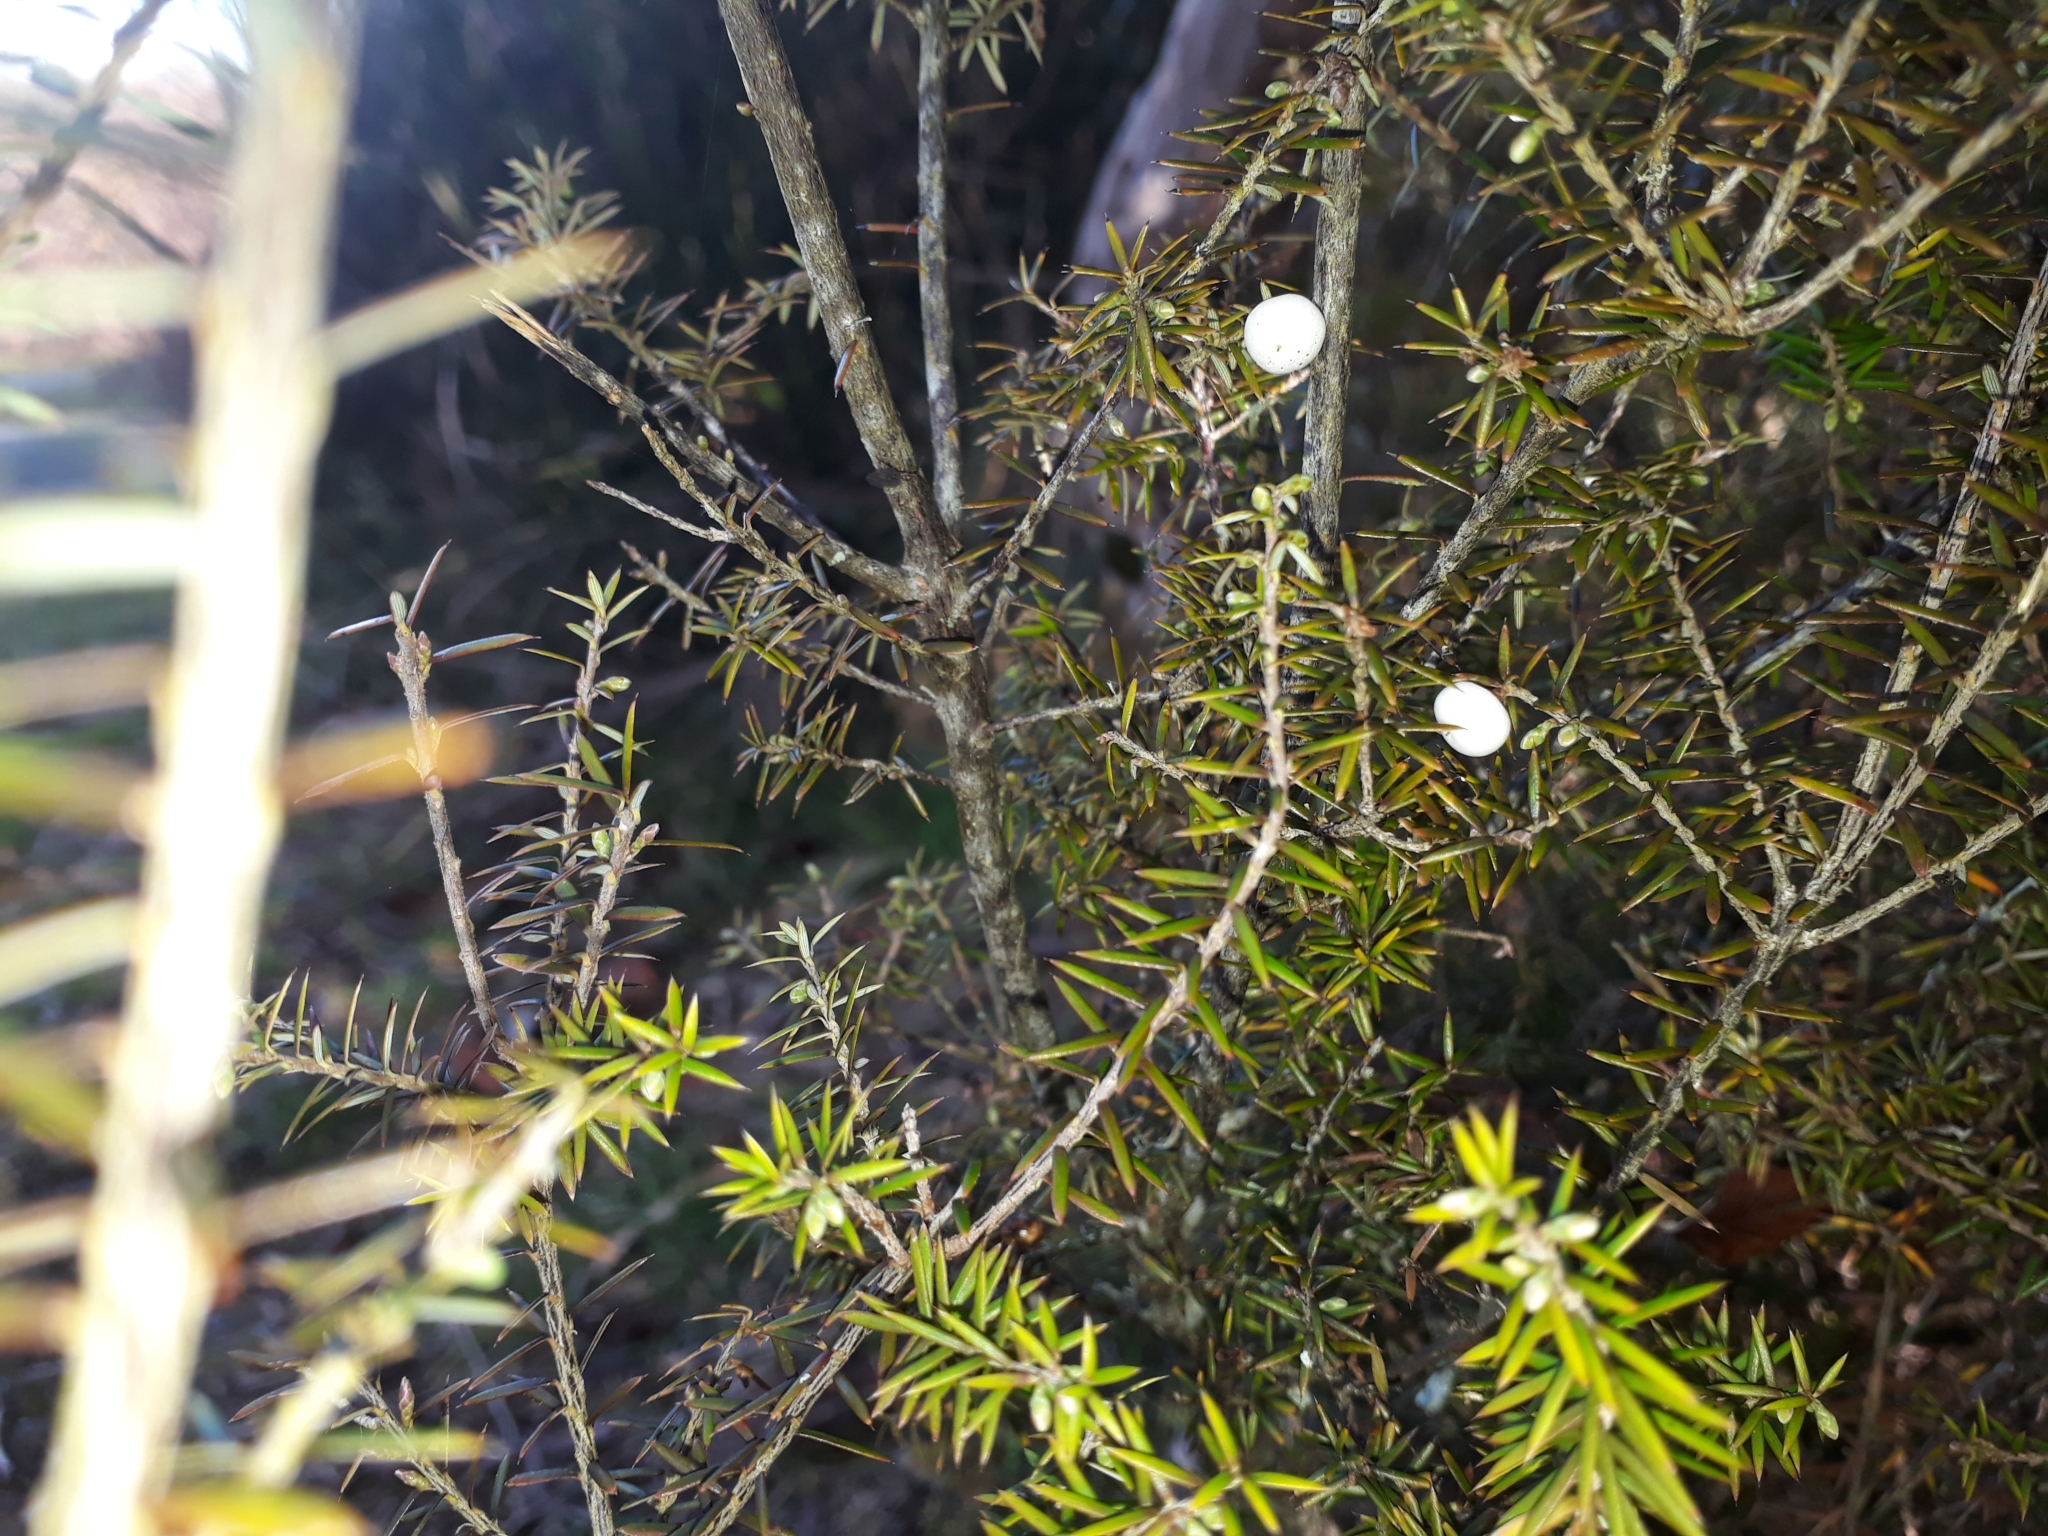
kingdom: Plantae
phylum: Tracheophyta
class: Magnoliopsida
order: Ericales
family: Ericaceae
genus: Leptecophylla
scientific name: Leptecophylla juniperina
